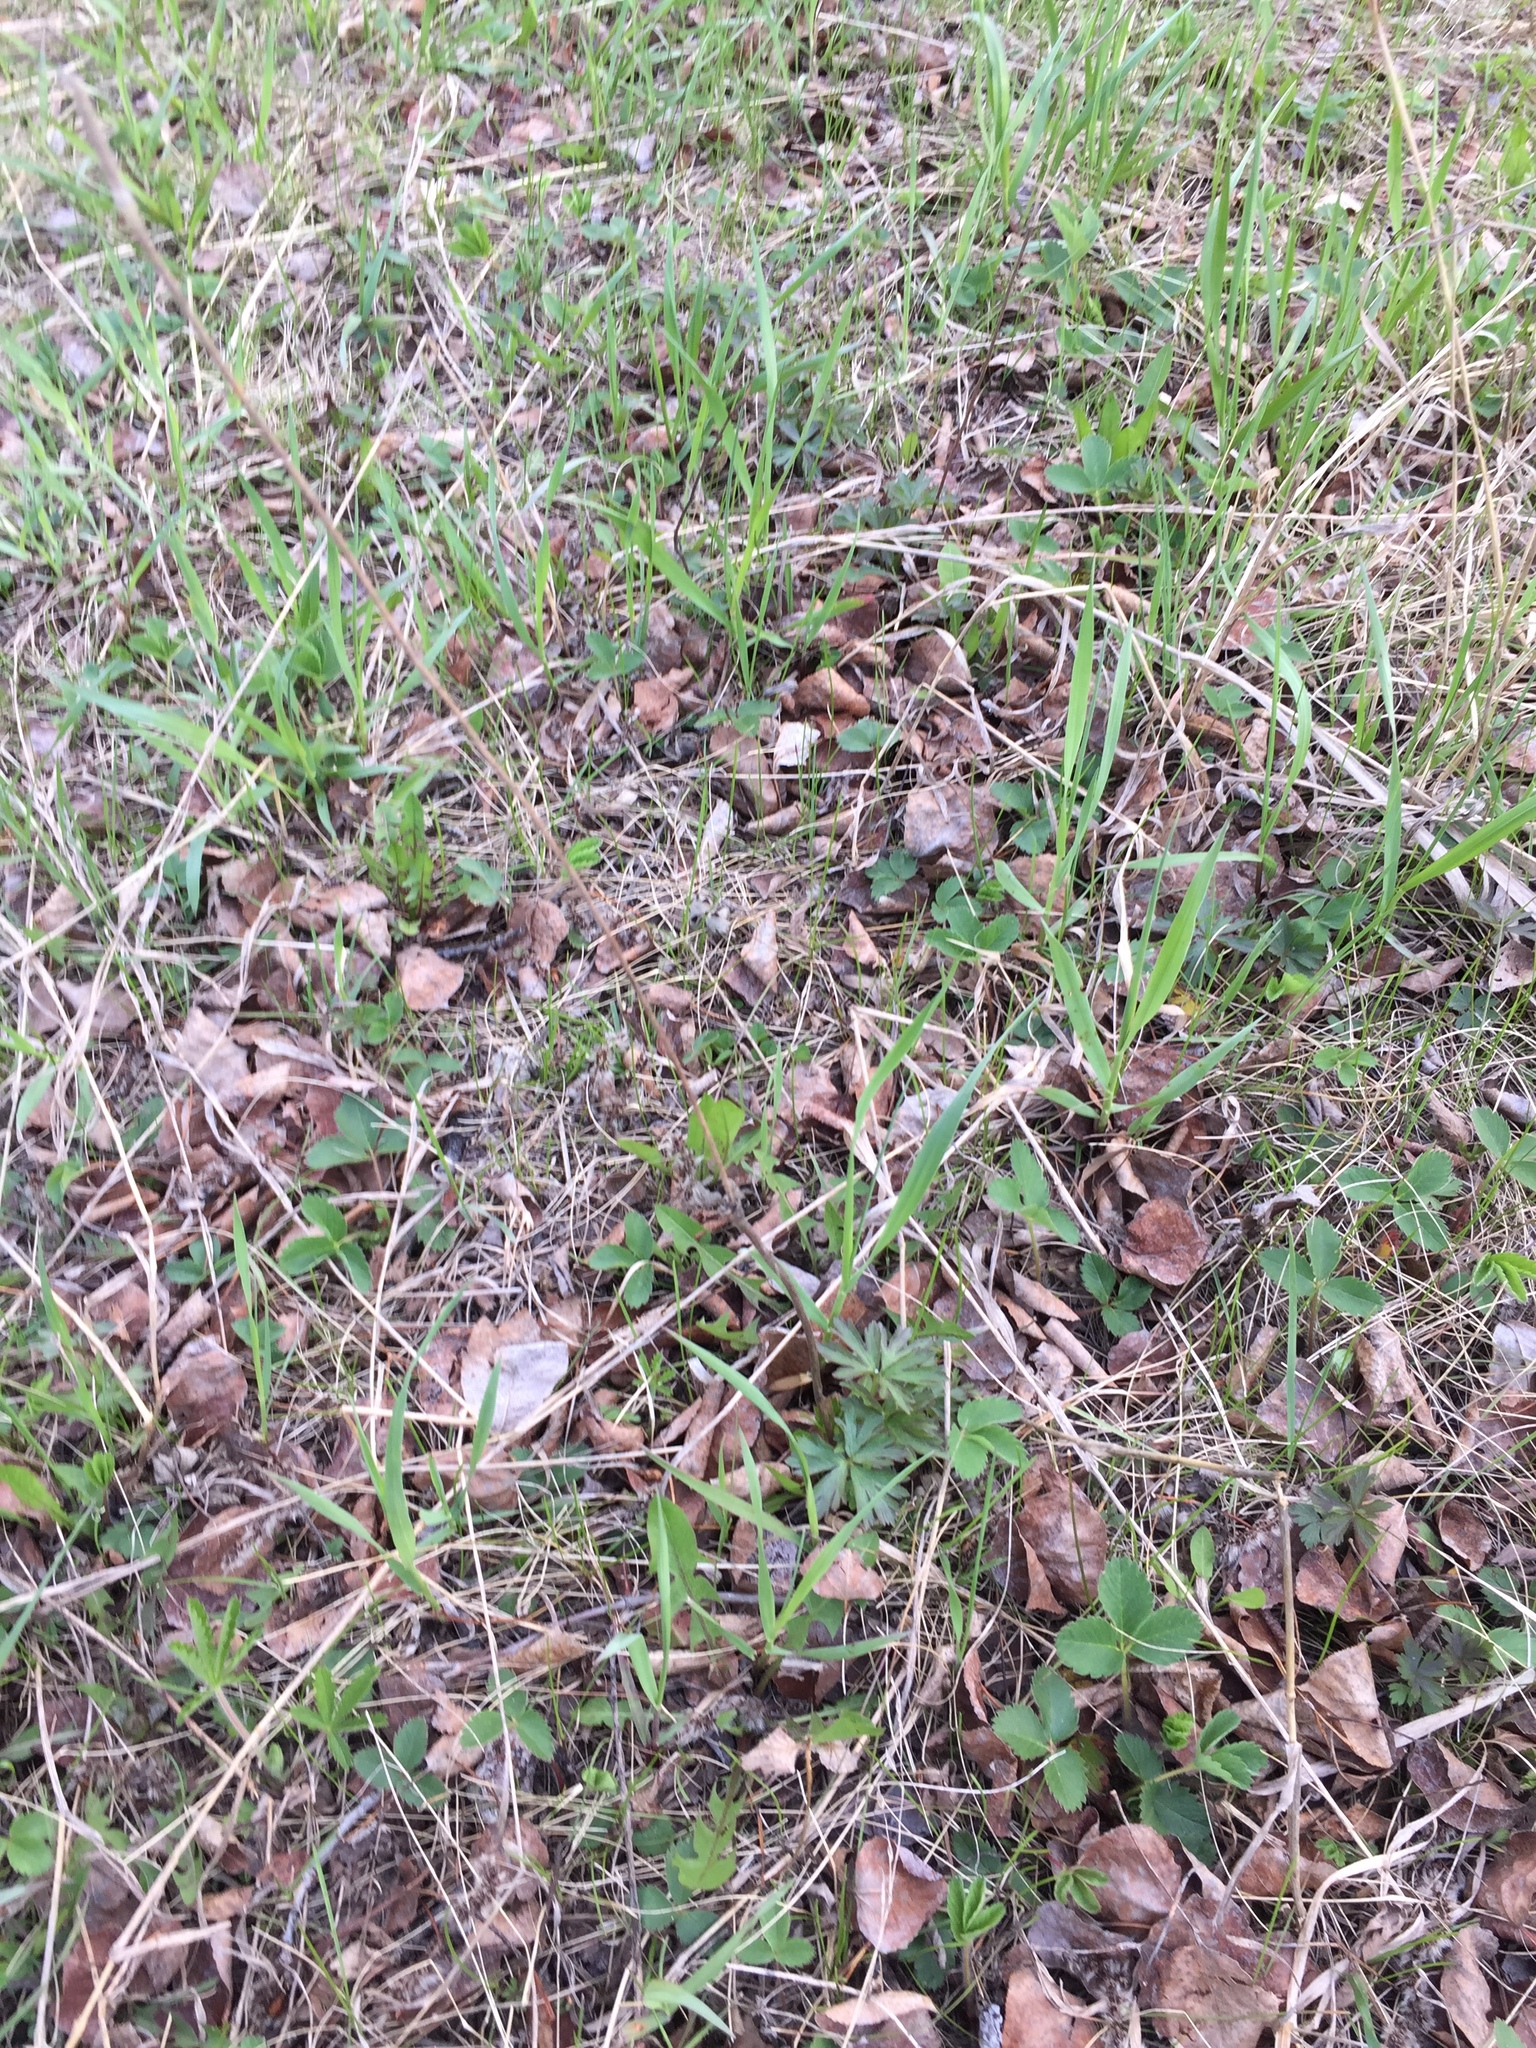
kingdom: Plantae
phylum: Tracheophyta
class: Magnoliopsida
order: Ranunculales
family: Ranunculaceae
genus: Anemone
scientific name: Anemone cylindrica
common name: Candle anemone
